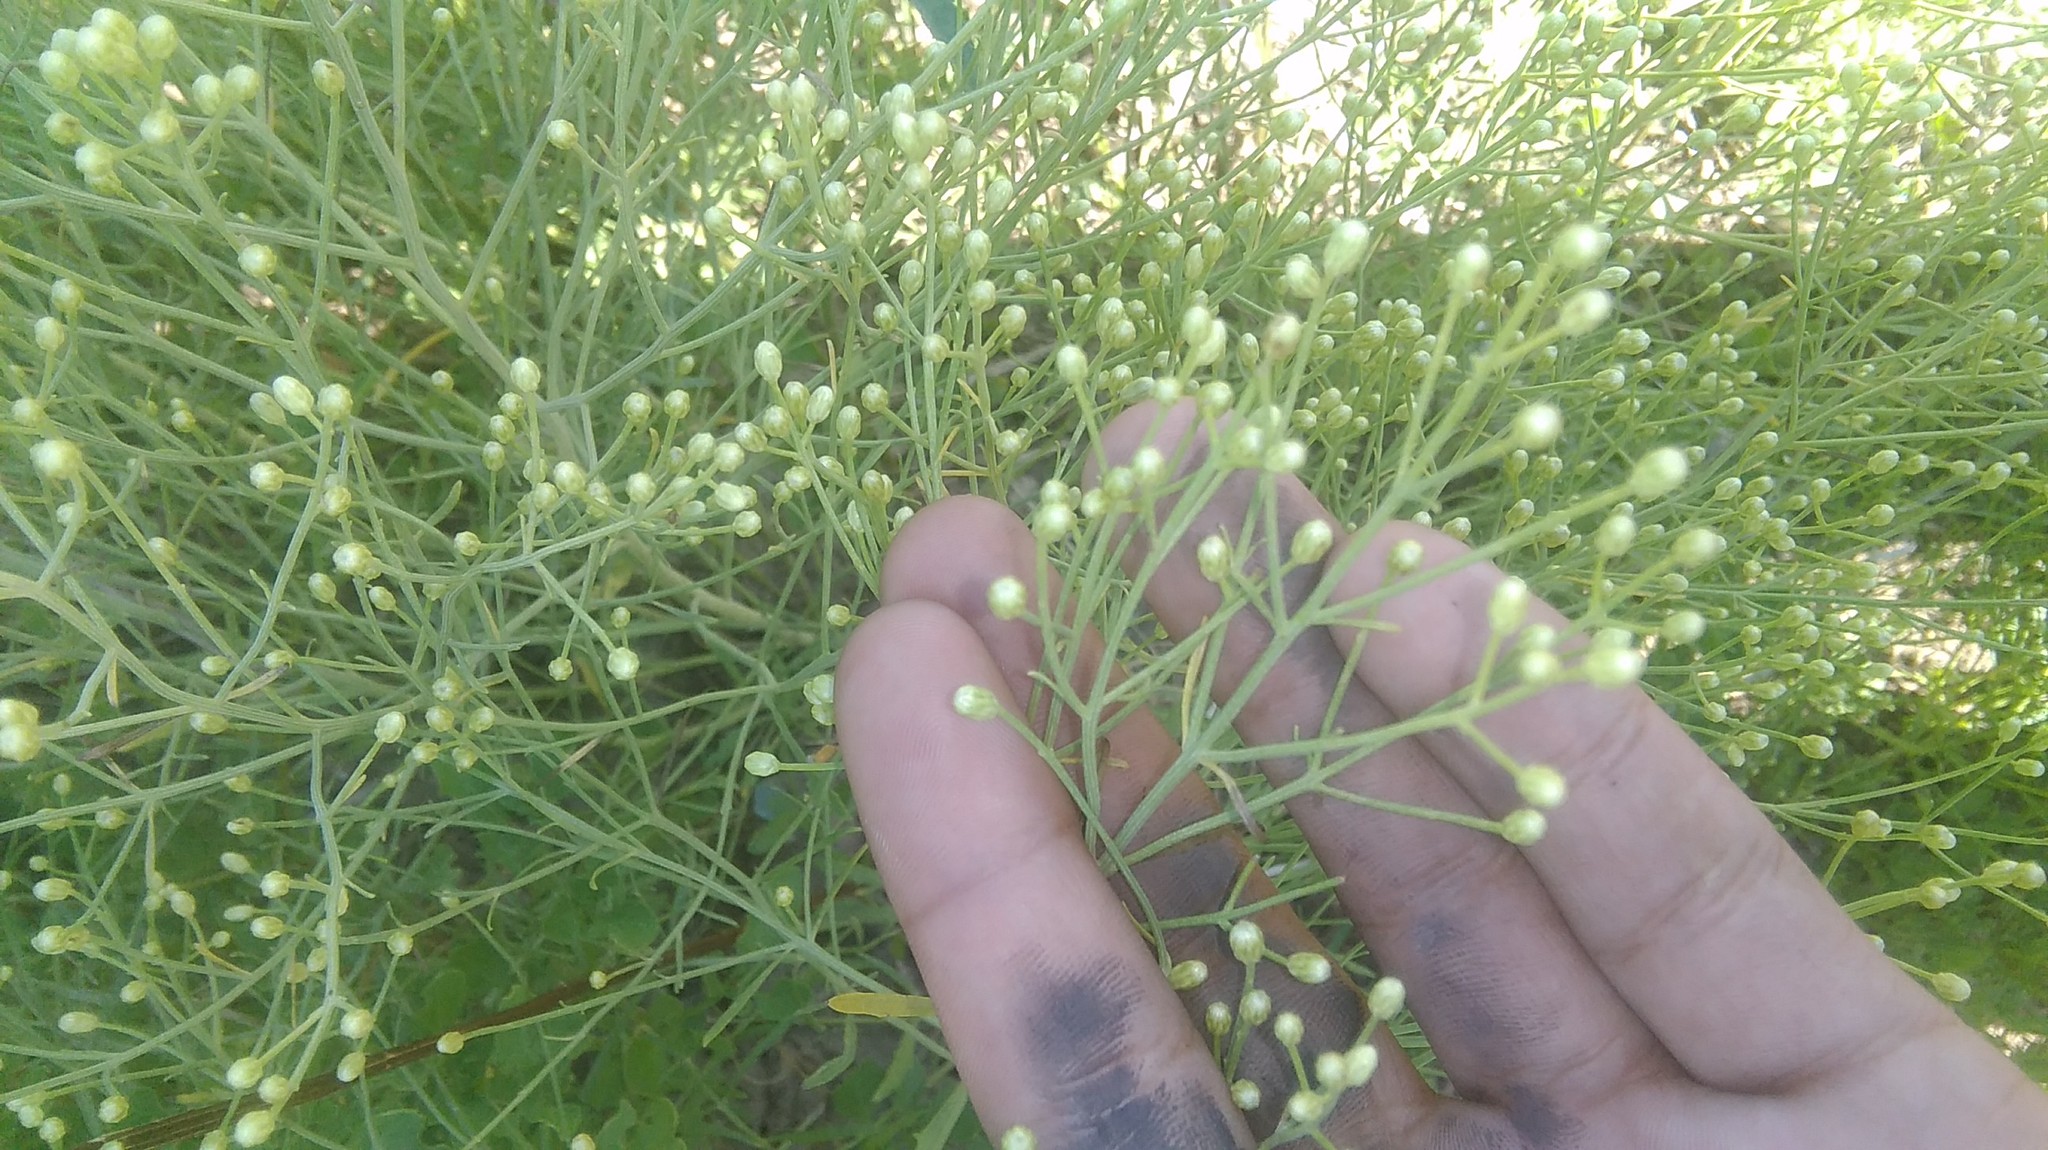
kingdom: Plantae
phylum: Tracheophyta
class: Magnoliopsida
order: Asterales
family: Asteraceae
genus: Baccharis
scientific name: Baccharis notosergila
